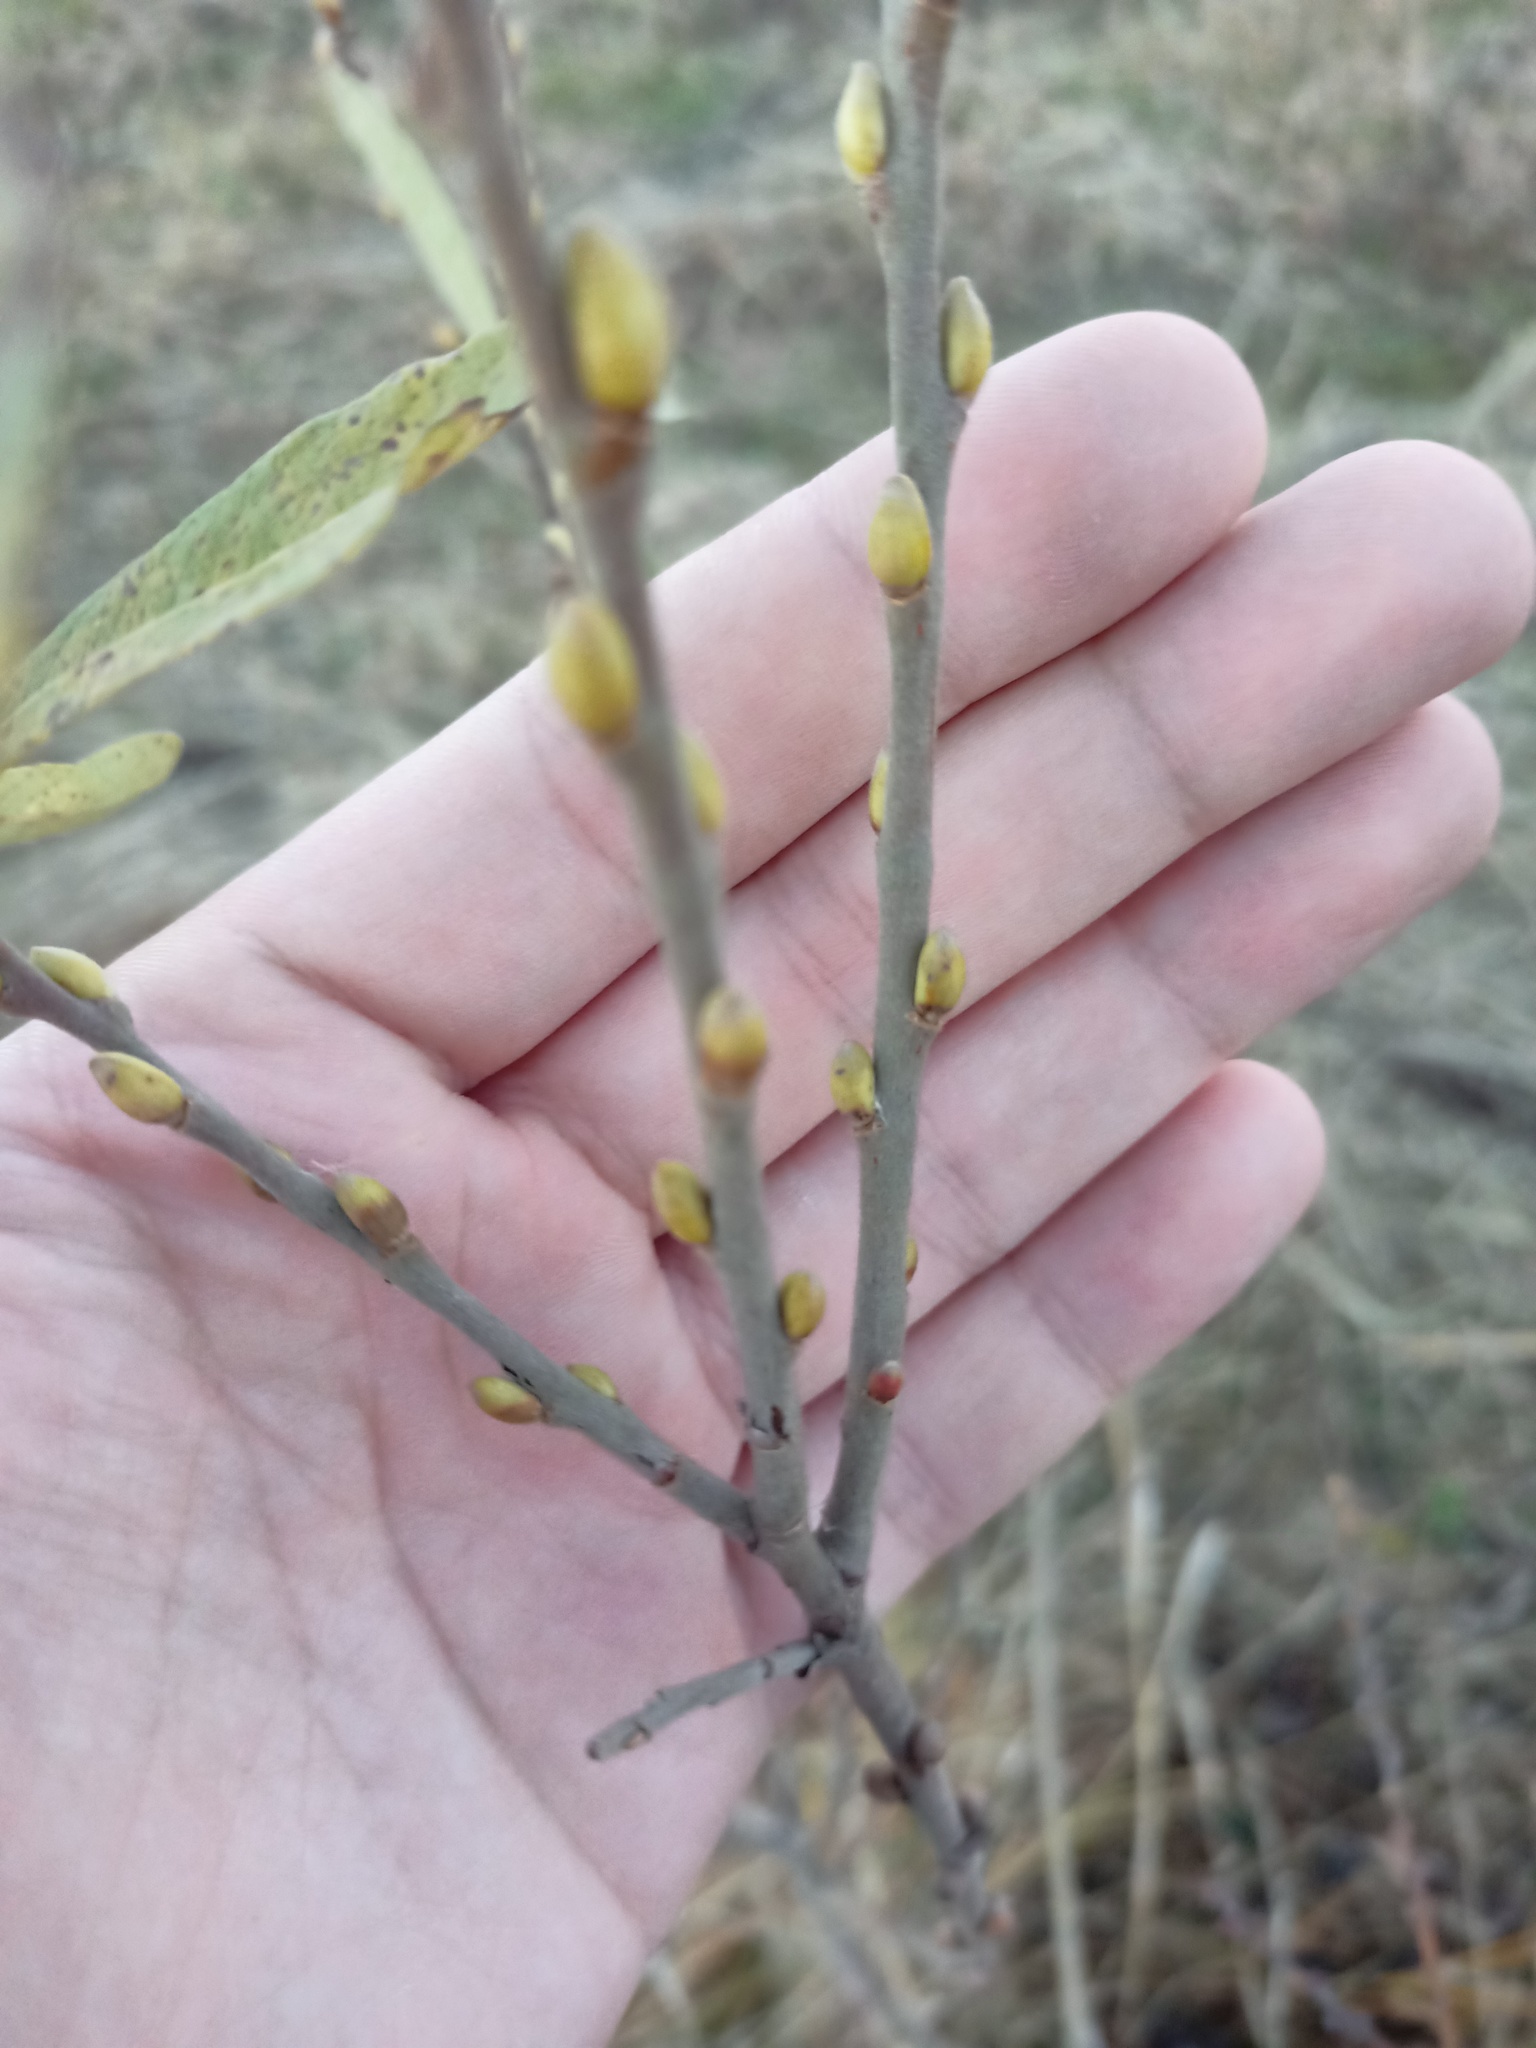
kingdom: Plantae
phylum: Tracheophyta
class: Magnoliopsida
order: Malpighiales
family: Salicaceae
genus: Salix
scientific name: Salix cinerea
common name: Common sallow
